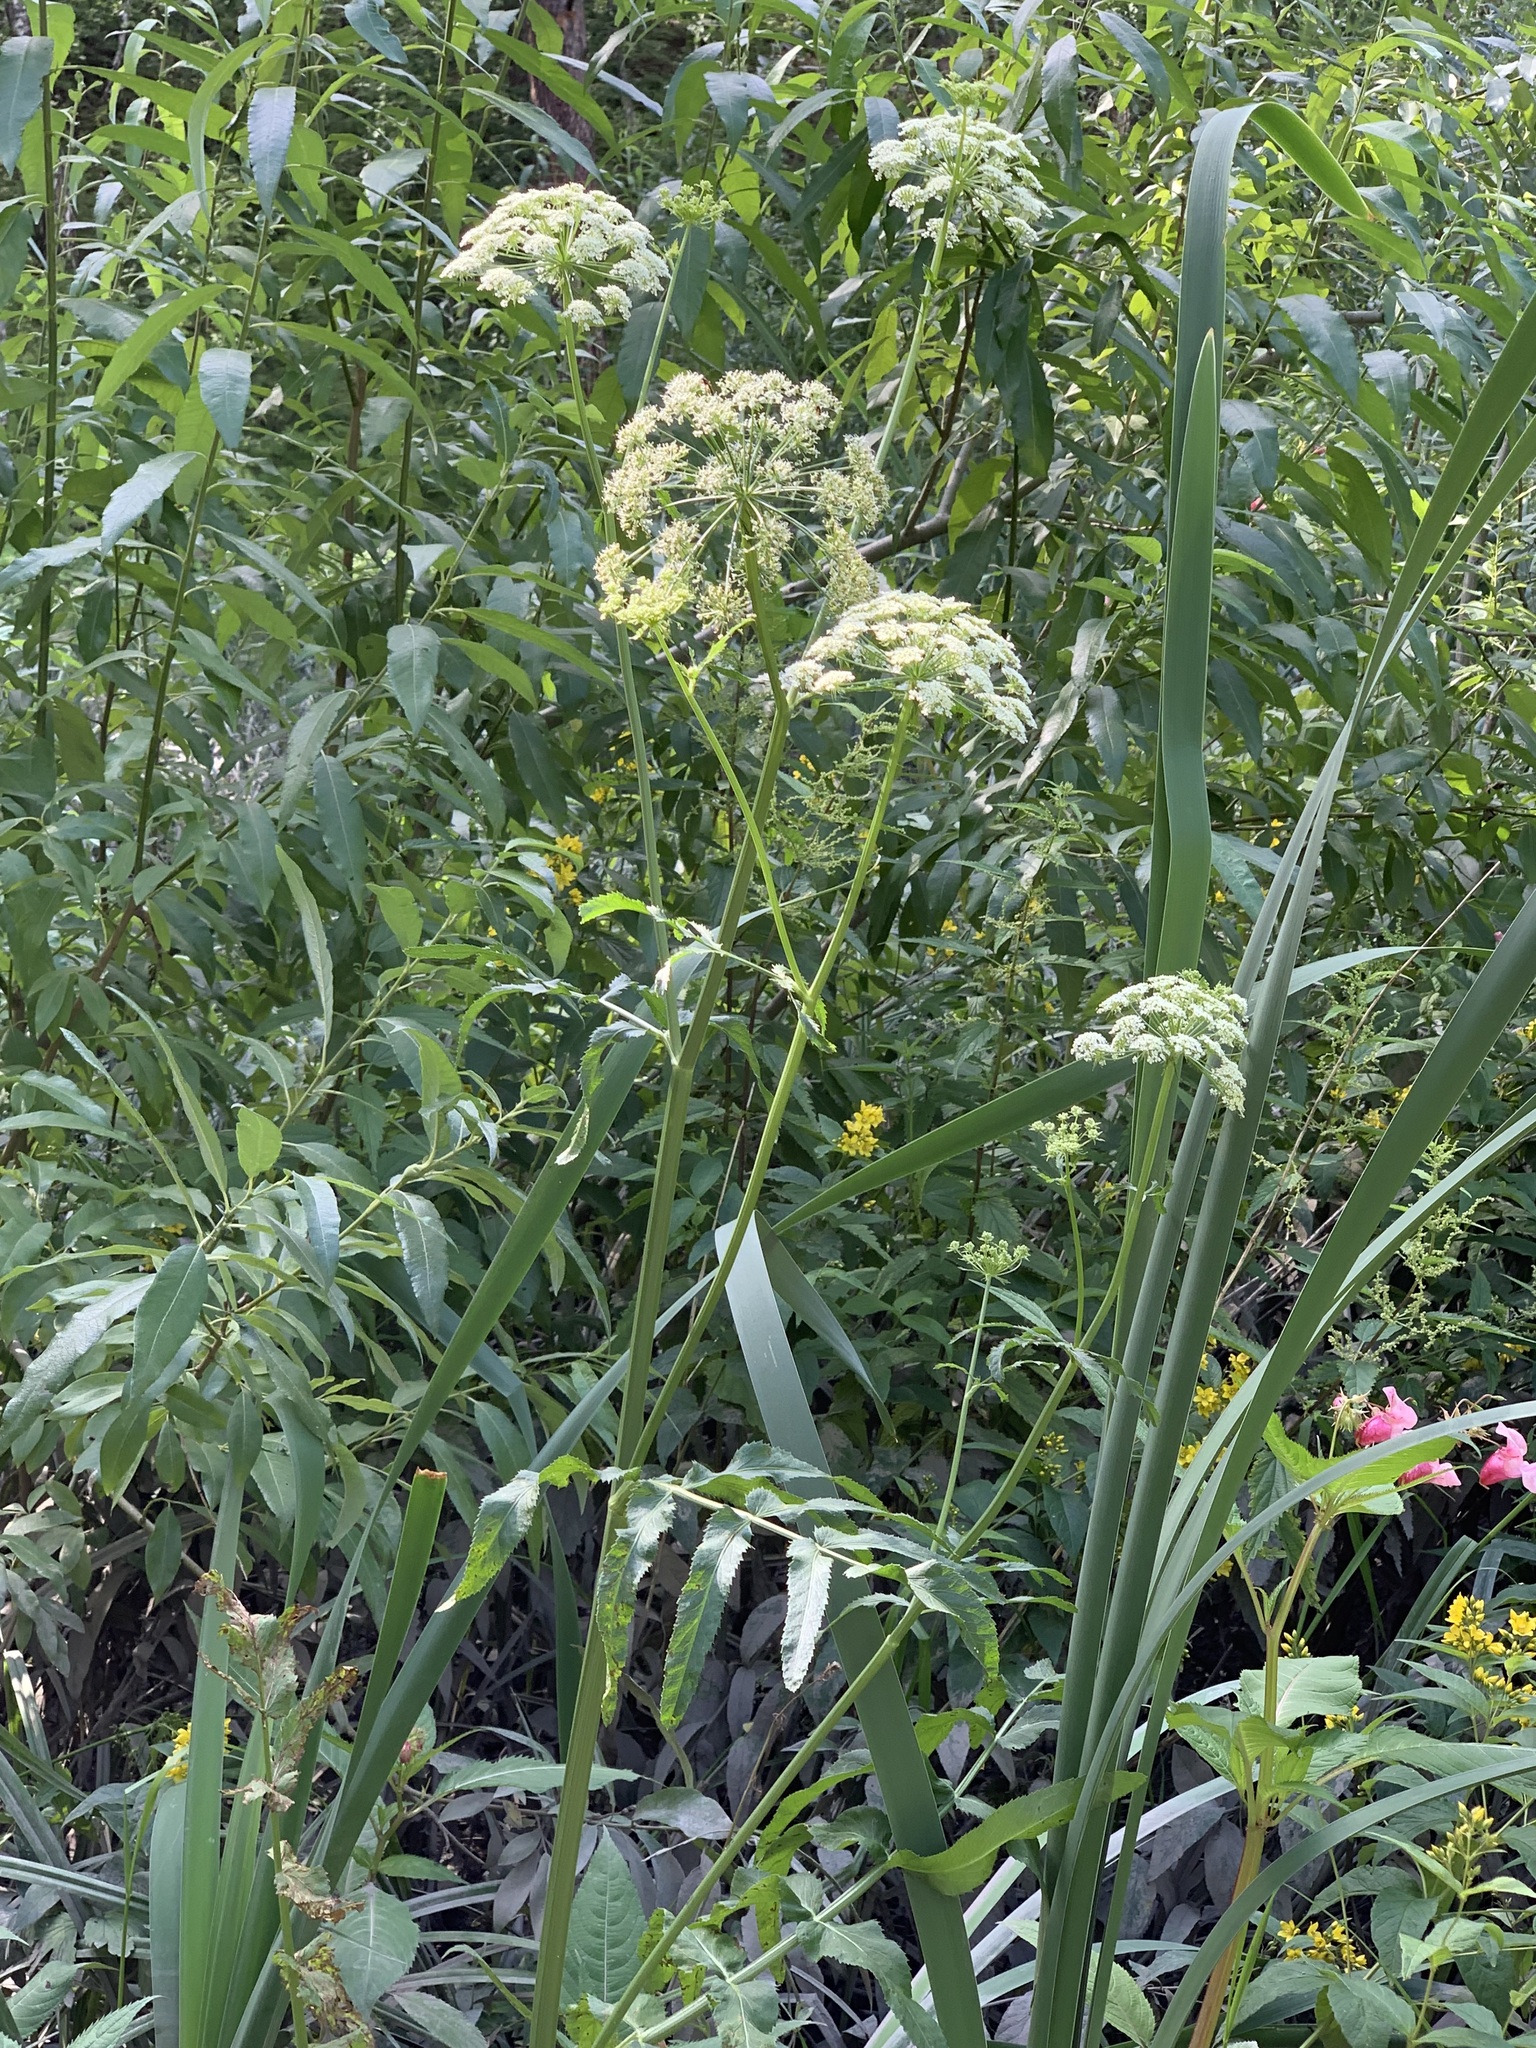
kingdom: Plantae
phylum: Tracheophyta
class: Magnoliopsida
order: Apiales
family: Apiaceae
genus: Sium
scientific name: Sium latifolium
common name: Greater water-parsnip
